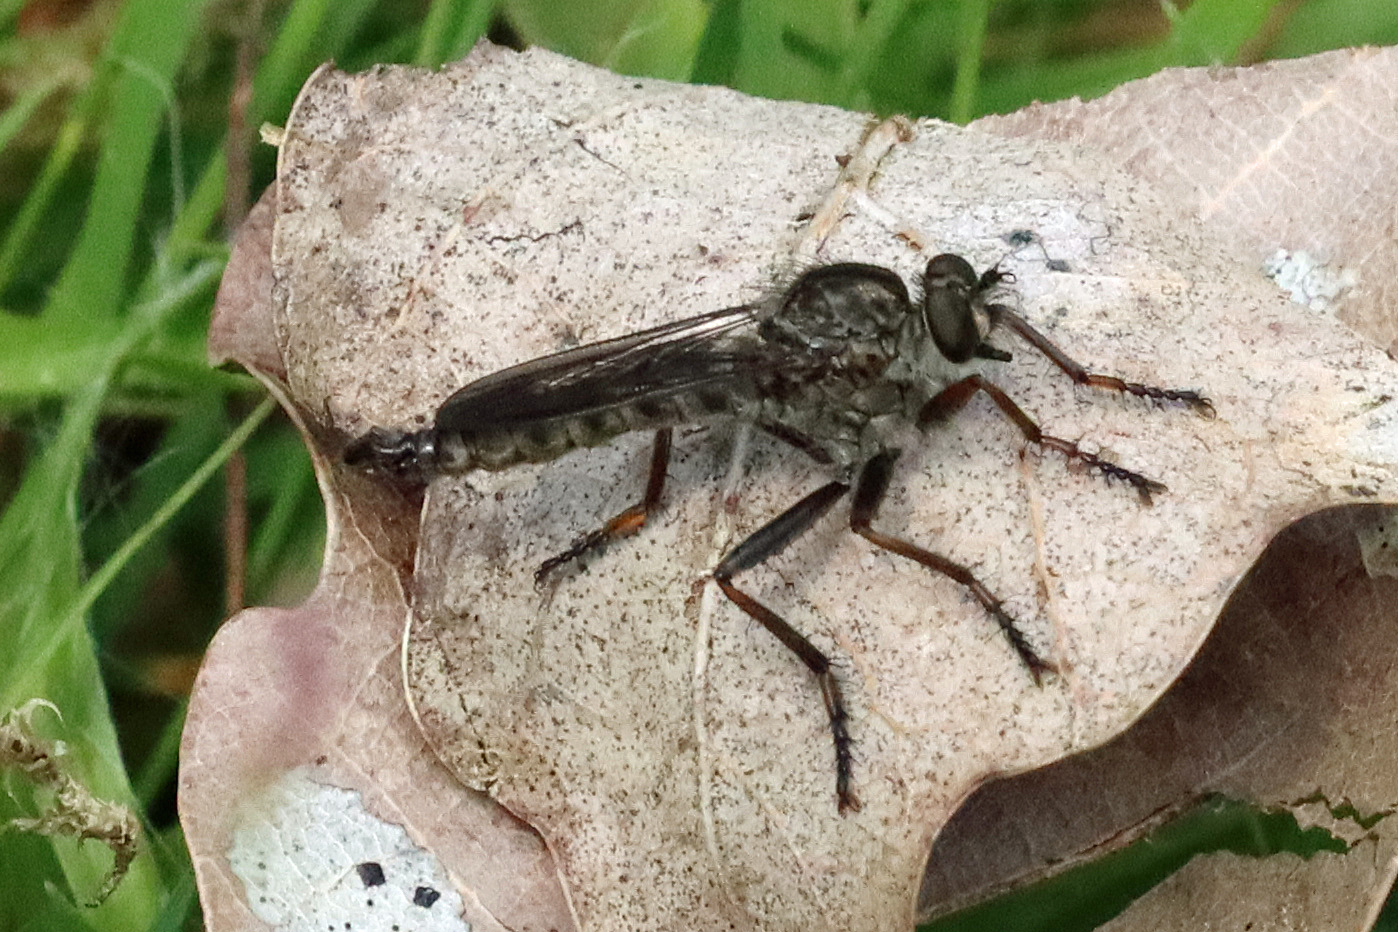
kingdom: Animalia
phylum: Arthropoda
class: Insecta
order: Diptera
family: Asilidae
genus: Machimus
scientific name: Machimus atricapillus
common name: Kite-tailed robberfly
